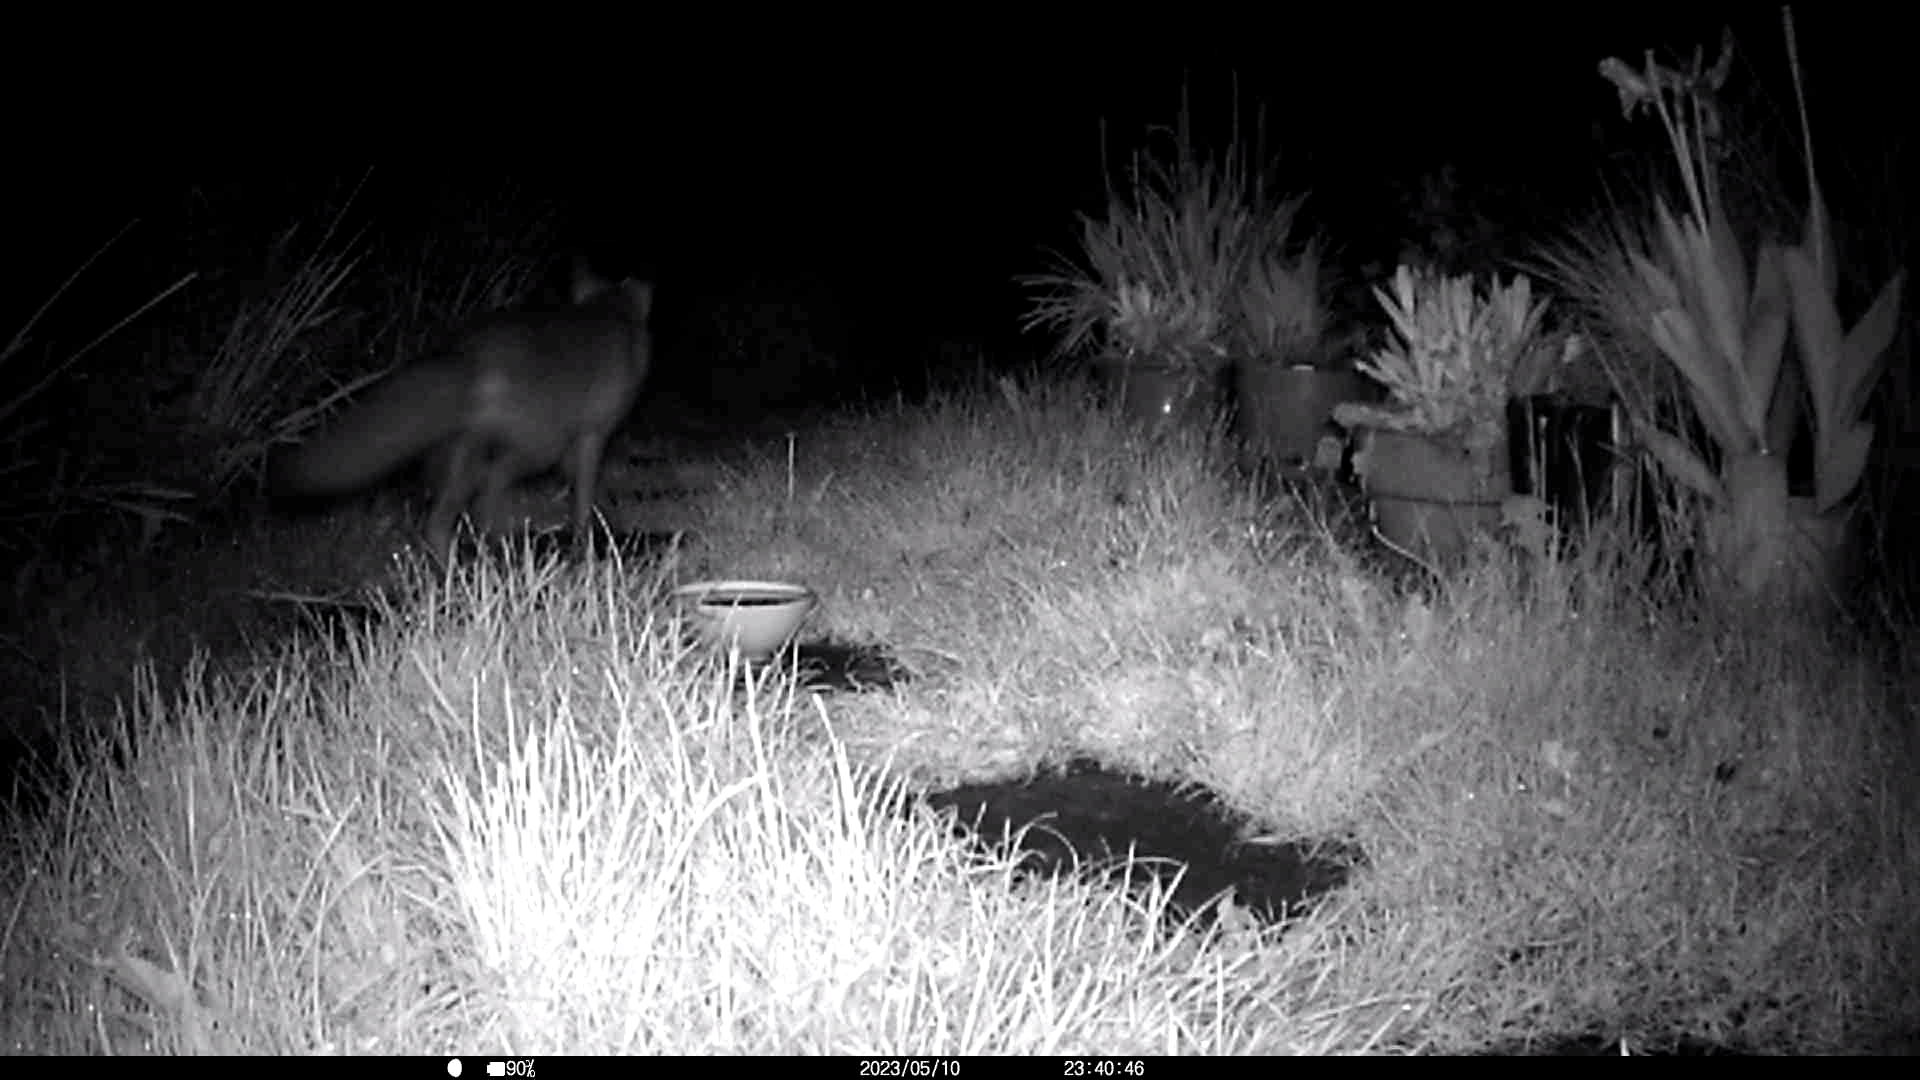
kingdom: Animalia
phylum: Chordata
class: Mammalia
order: Carnivora
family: Canidae
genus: Vulpes
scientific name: Vulpes vulpes
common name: Red fox
